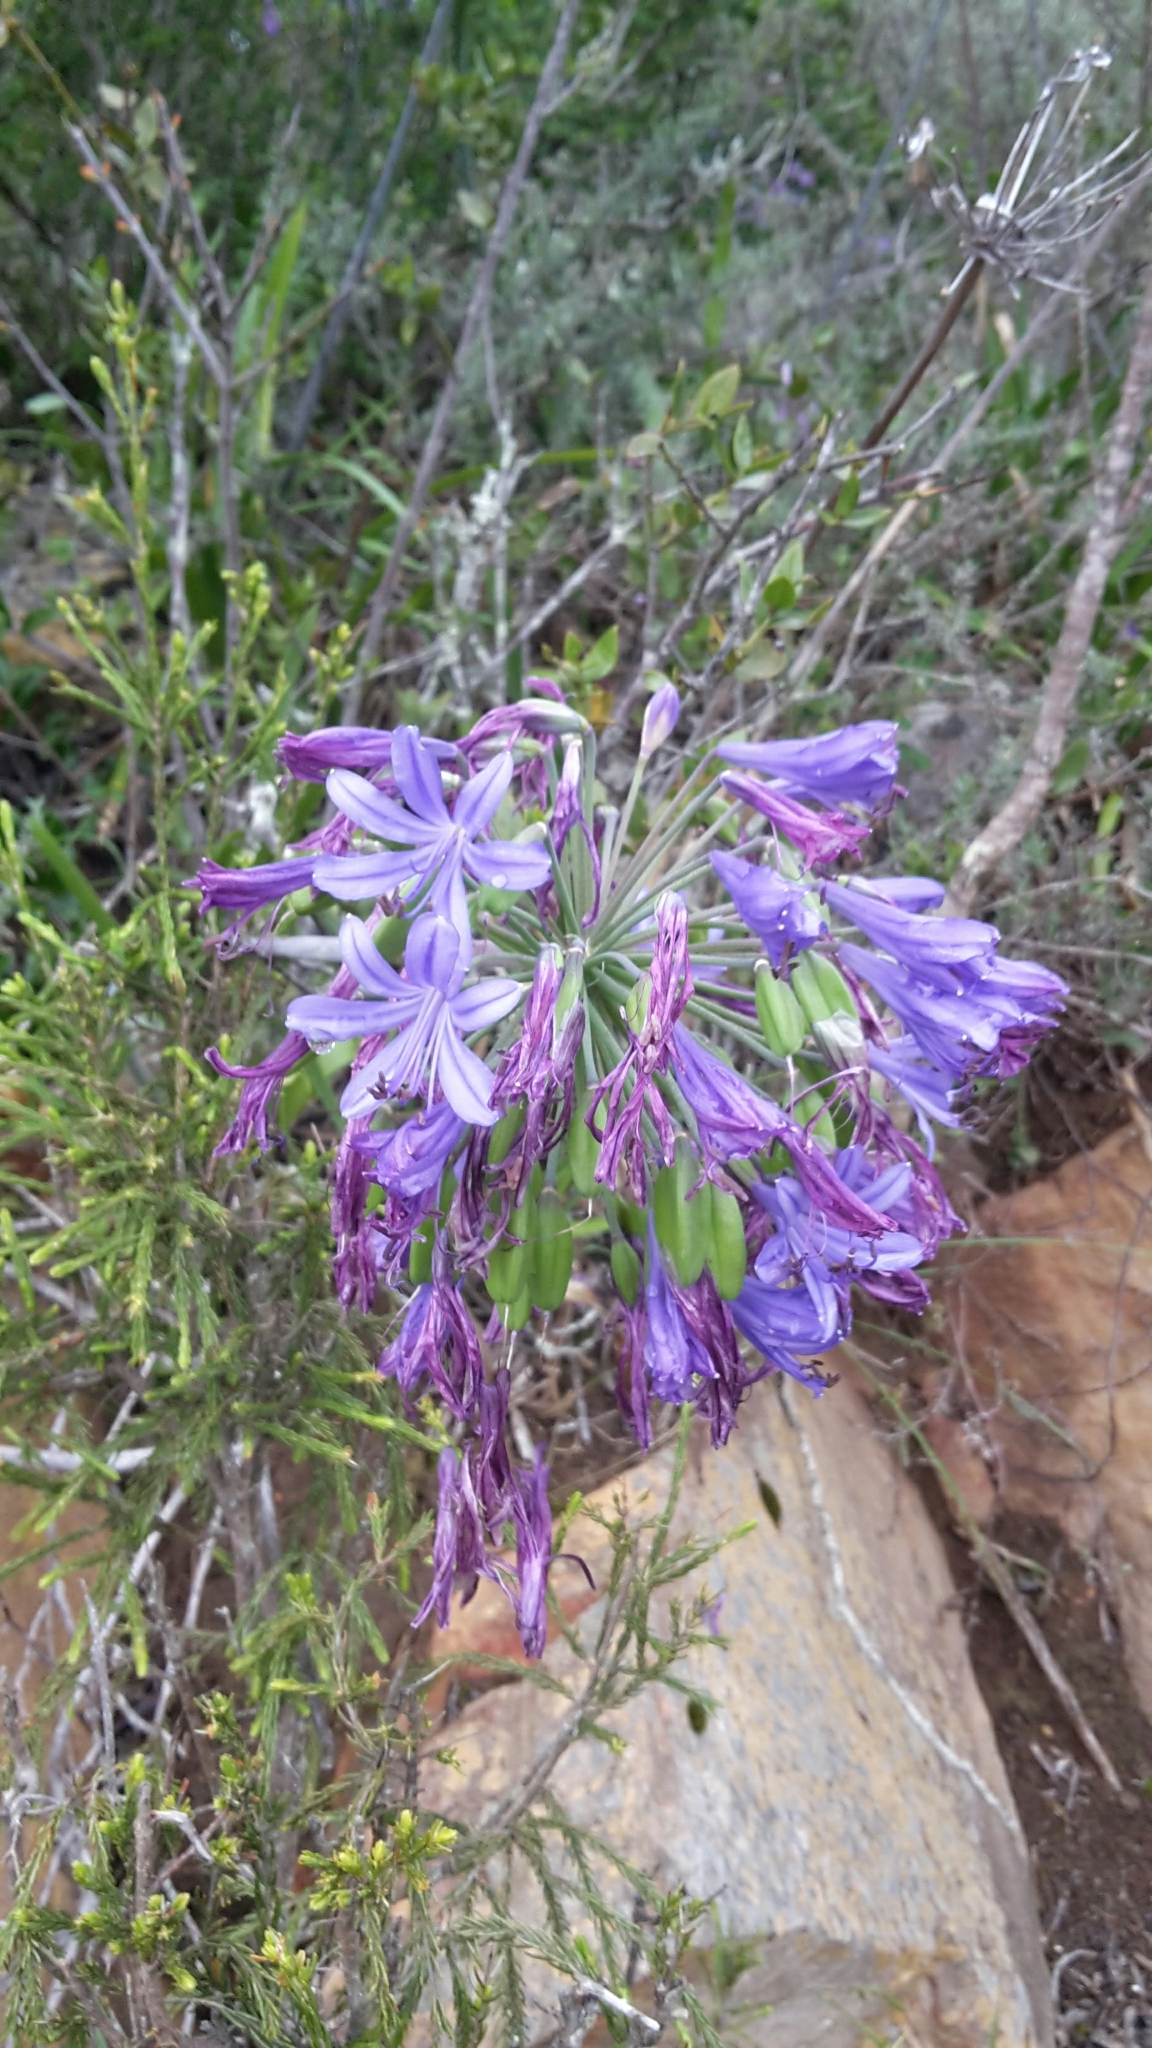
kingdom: Plantae
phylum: Tracheophyta
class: Liliopsida
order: Asparagales
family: Amaryllidaceae
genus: Agapanthus
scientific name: Agapanthus praecox
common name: African-lily
